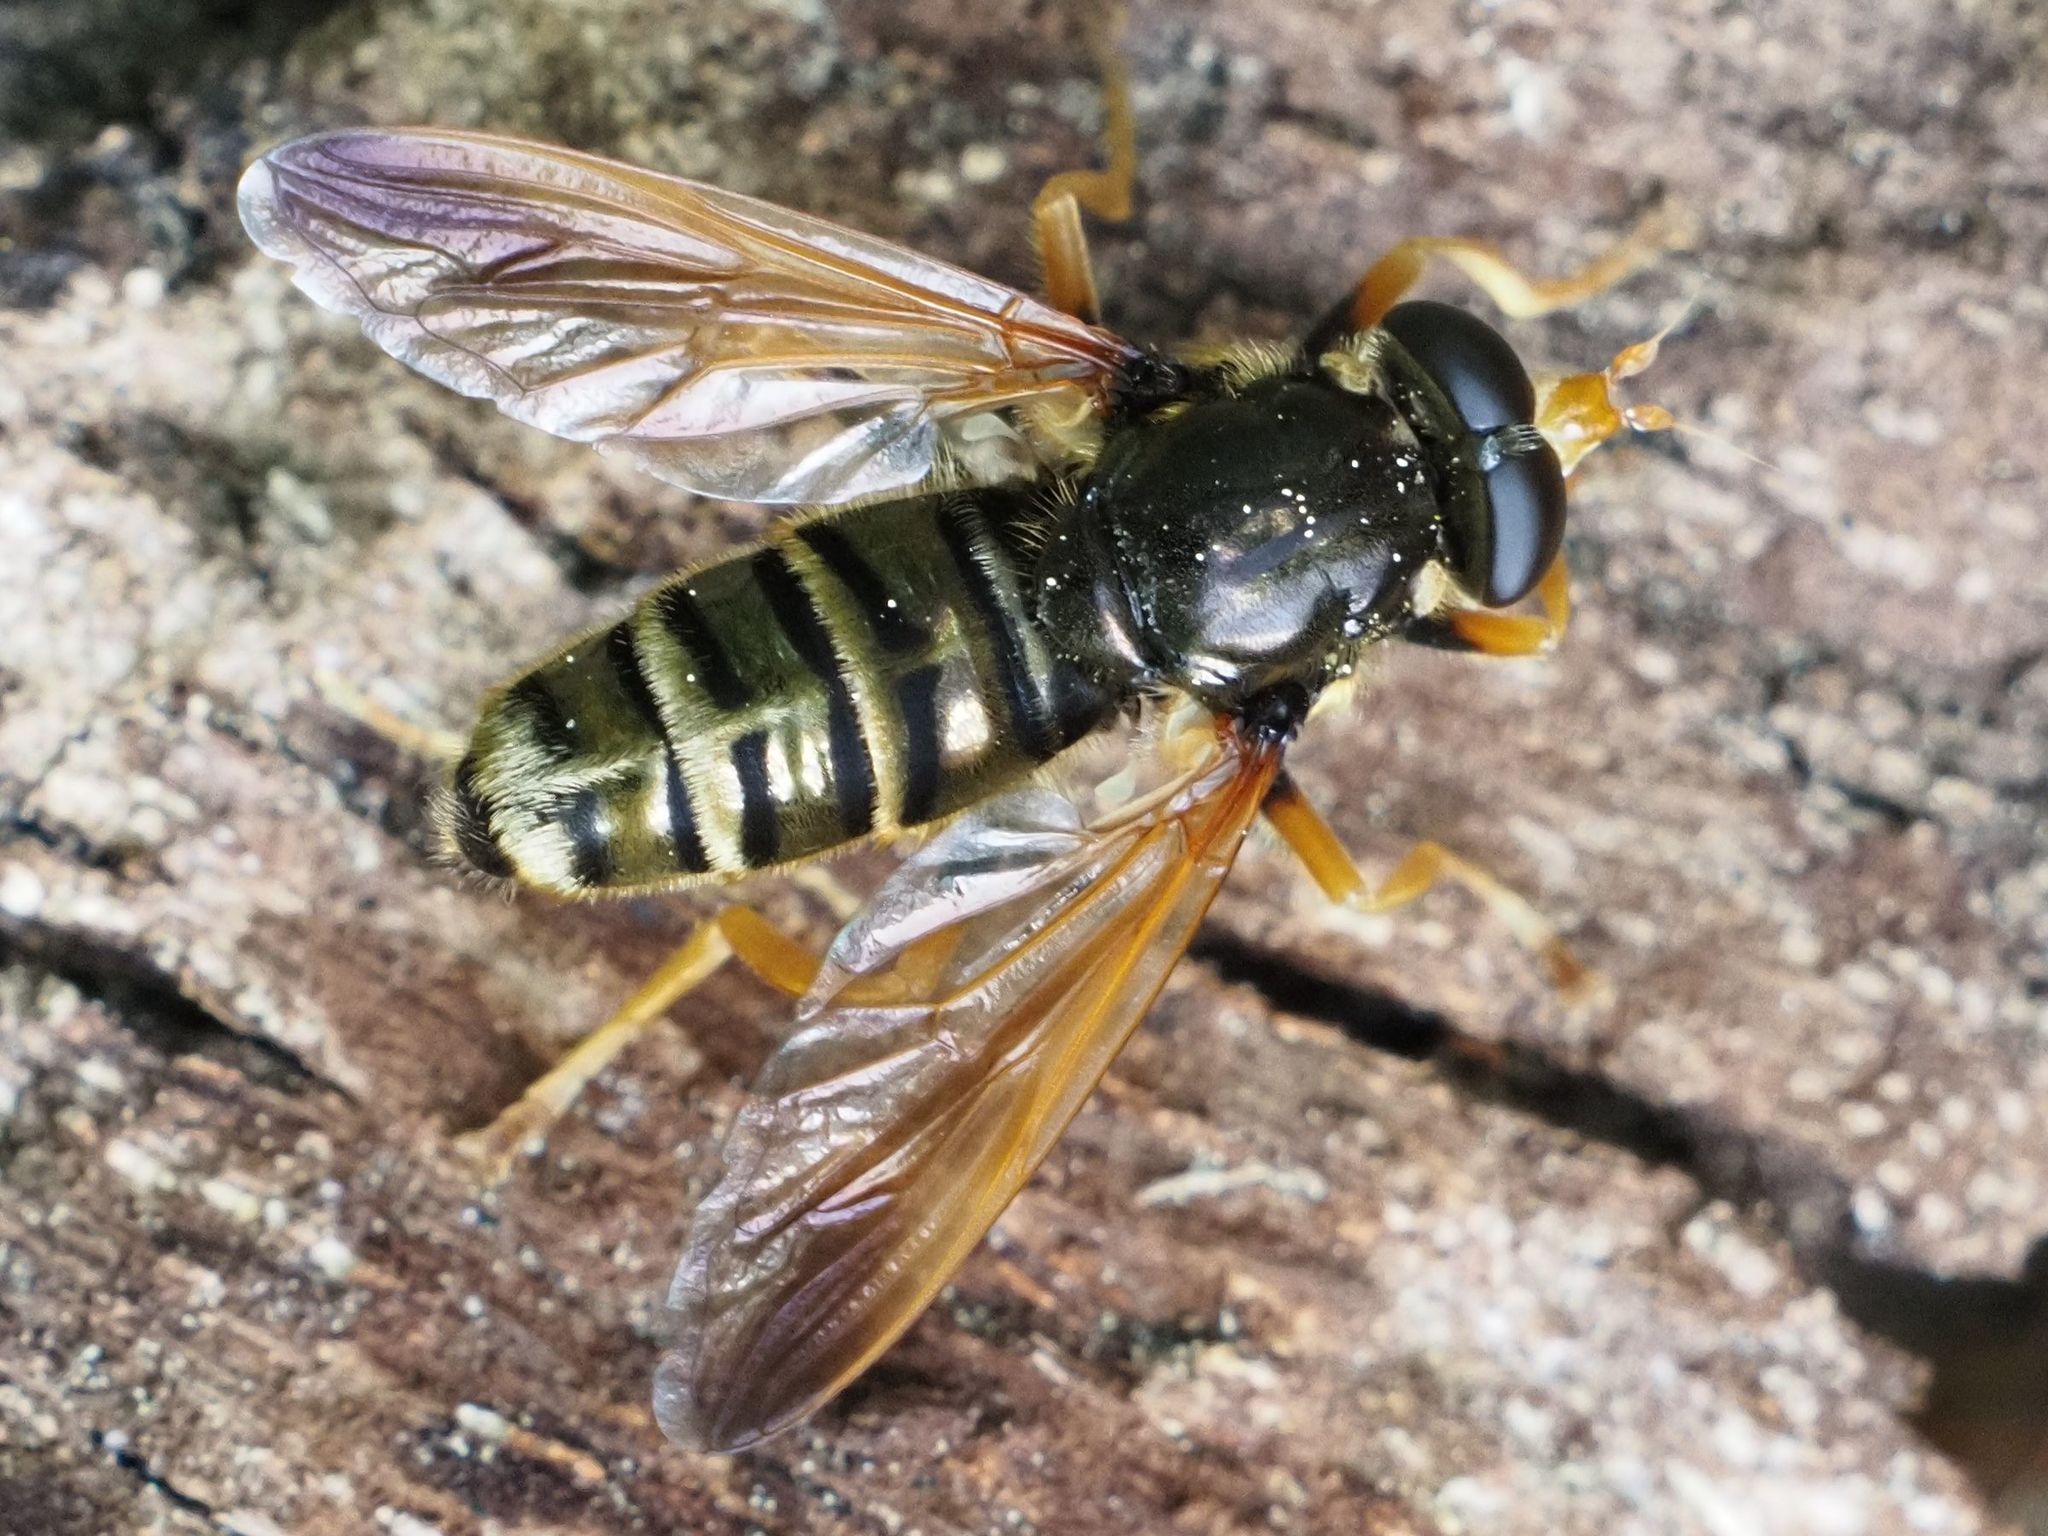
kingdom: Animalia
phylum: Arthropoda
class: Insecta
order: Diptera
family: Syrphidae
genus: Caliprobola
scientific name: Caliprobola speciosa
